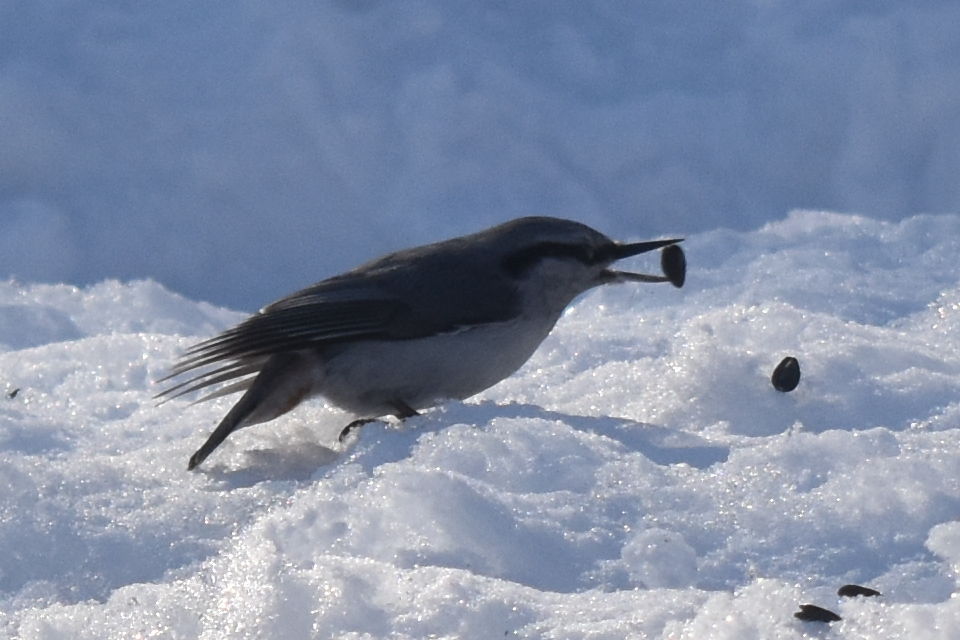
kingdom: Animalia
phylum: Chordata
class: Aves
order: Passeriformes
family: Sittidae
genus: Sitta
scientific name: Sitta europaea
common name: Eurasian nuthatch
